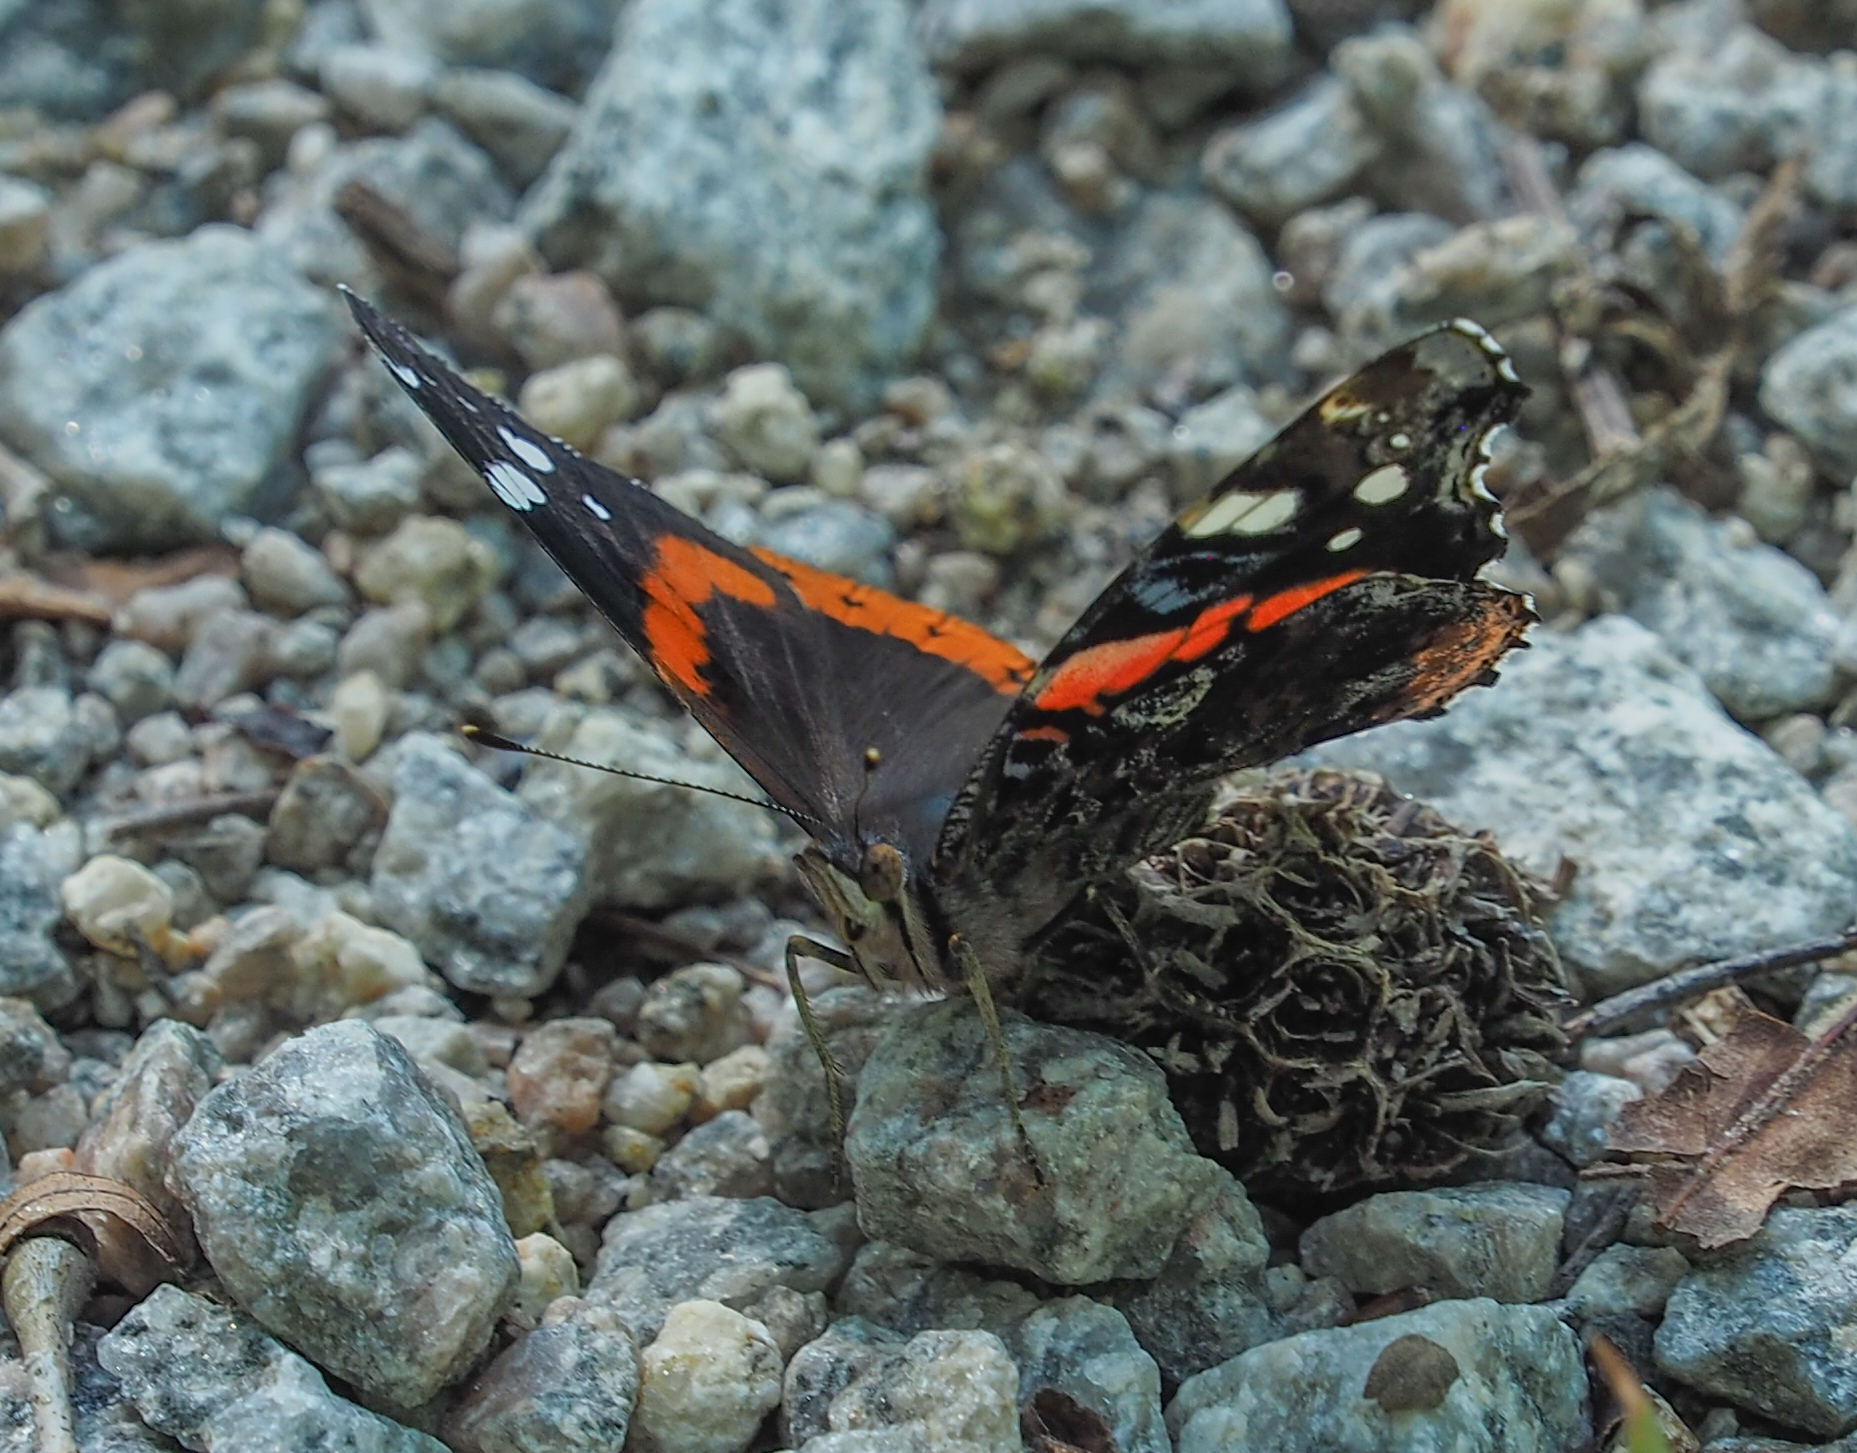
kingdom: Animalia
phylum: Arthropoda
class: Insecta
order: Lepidoptera
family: Nymphalidae
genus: Vanessa
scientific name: Vanessa atalanta
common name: Red admiral
